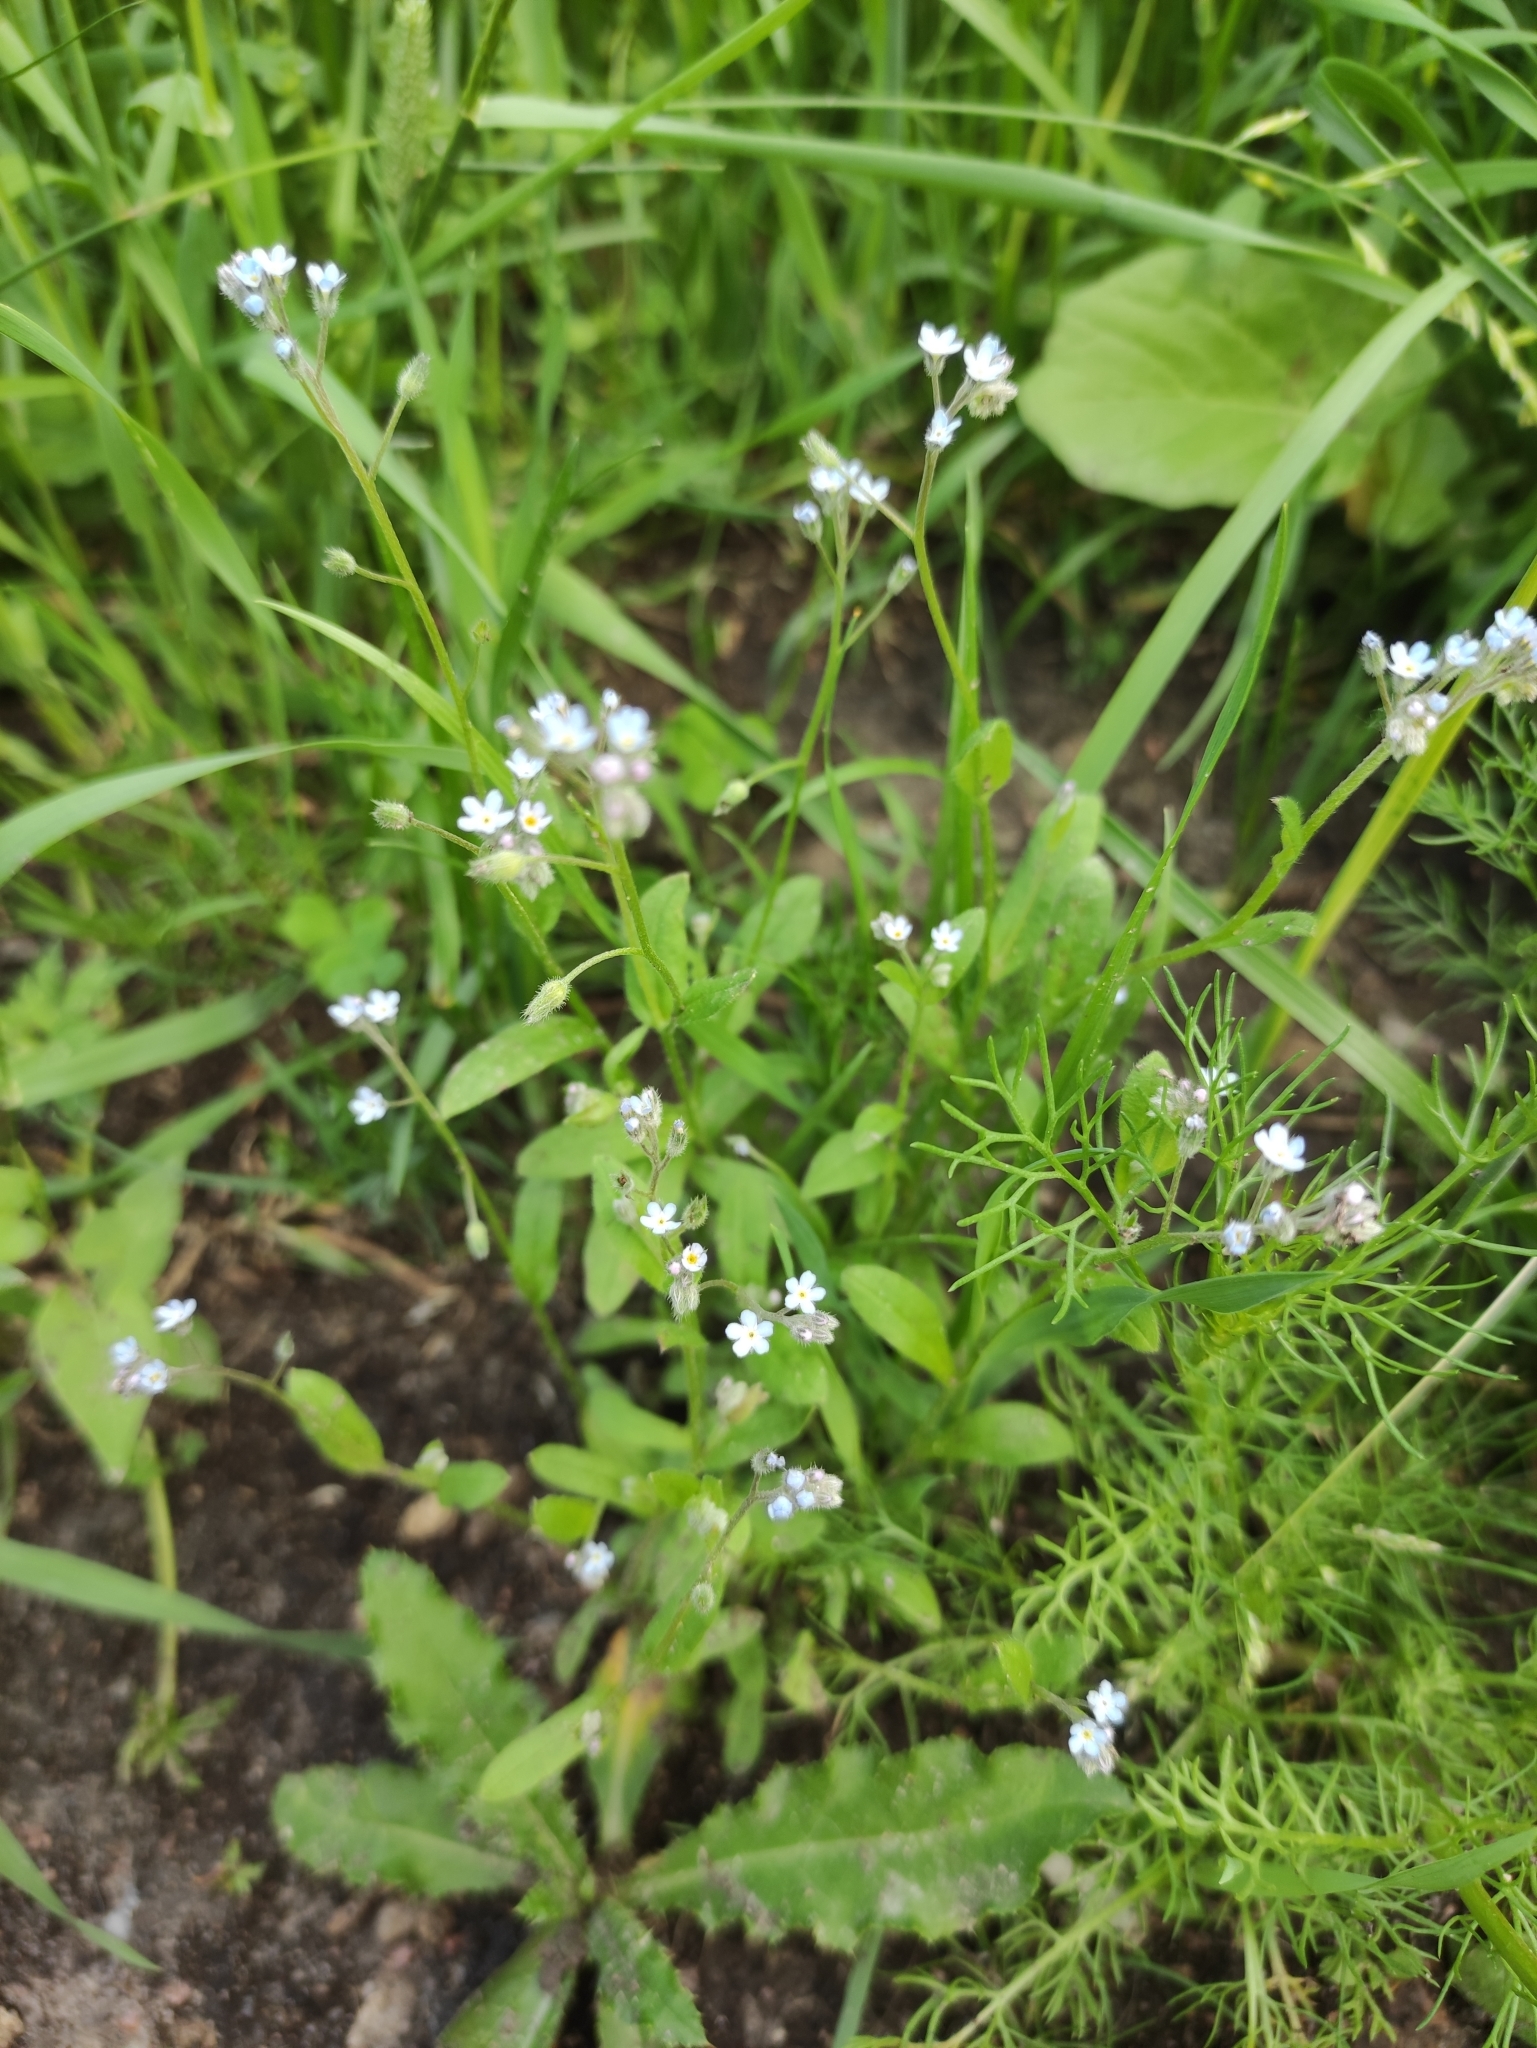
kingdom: Plantae
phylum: Tracheophyta
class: Magnoliopsida
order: Boraginales
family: Boraginaceae
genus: Myosotis
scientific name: Myosotis arvensis
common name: Field forget-me-not
